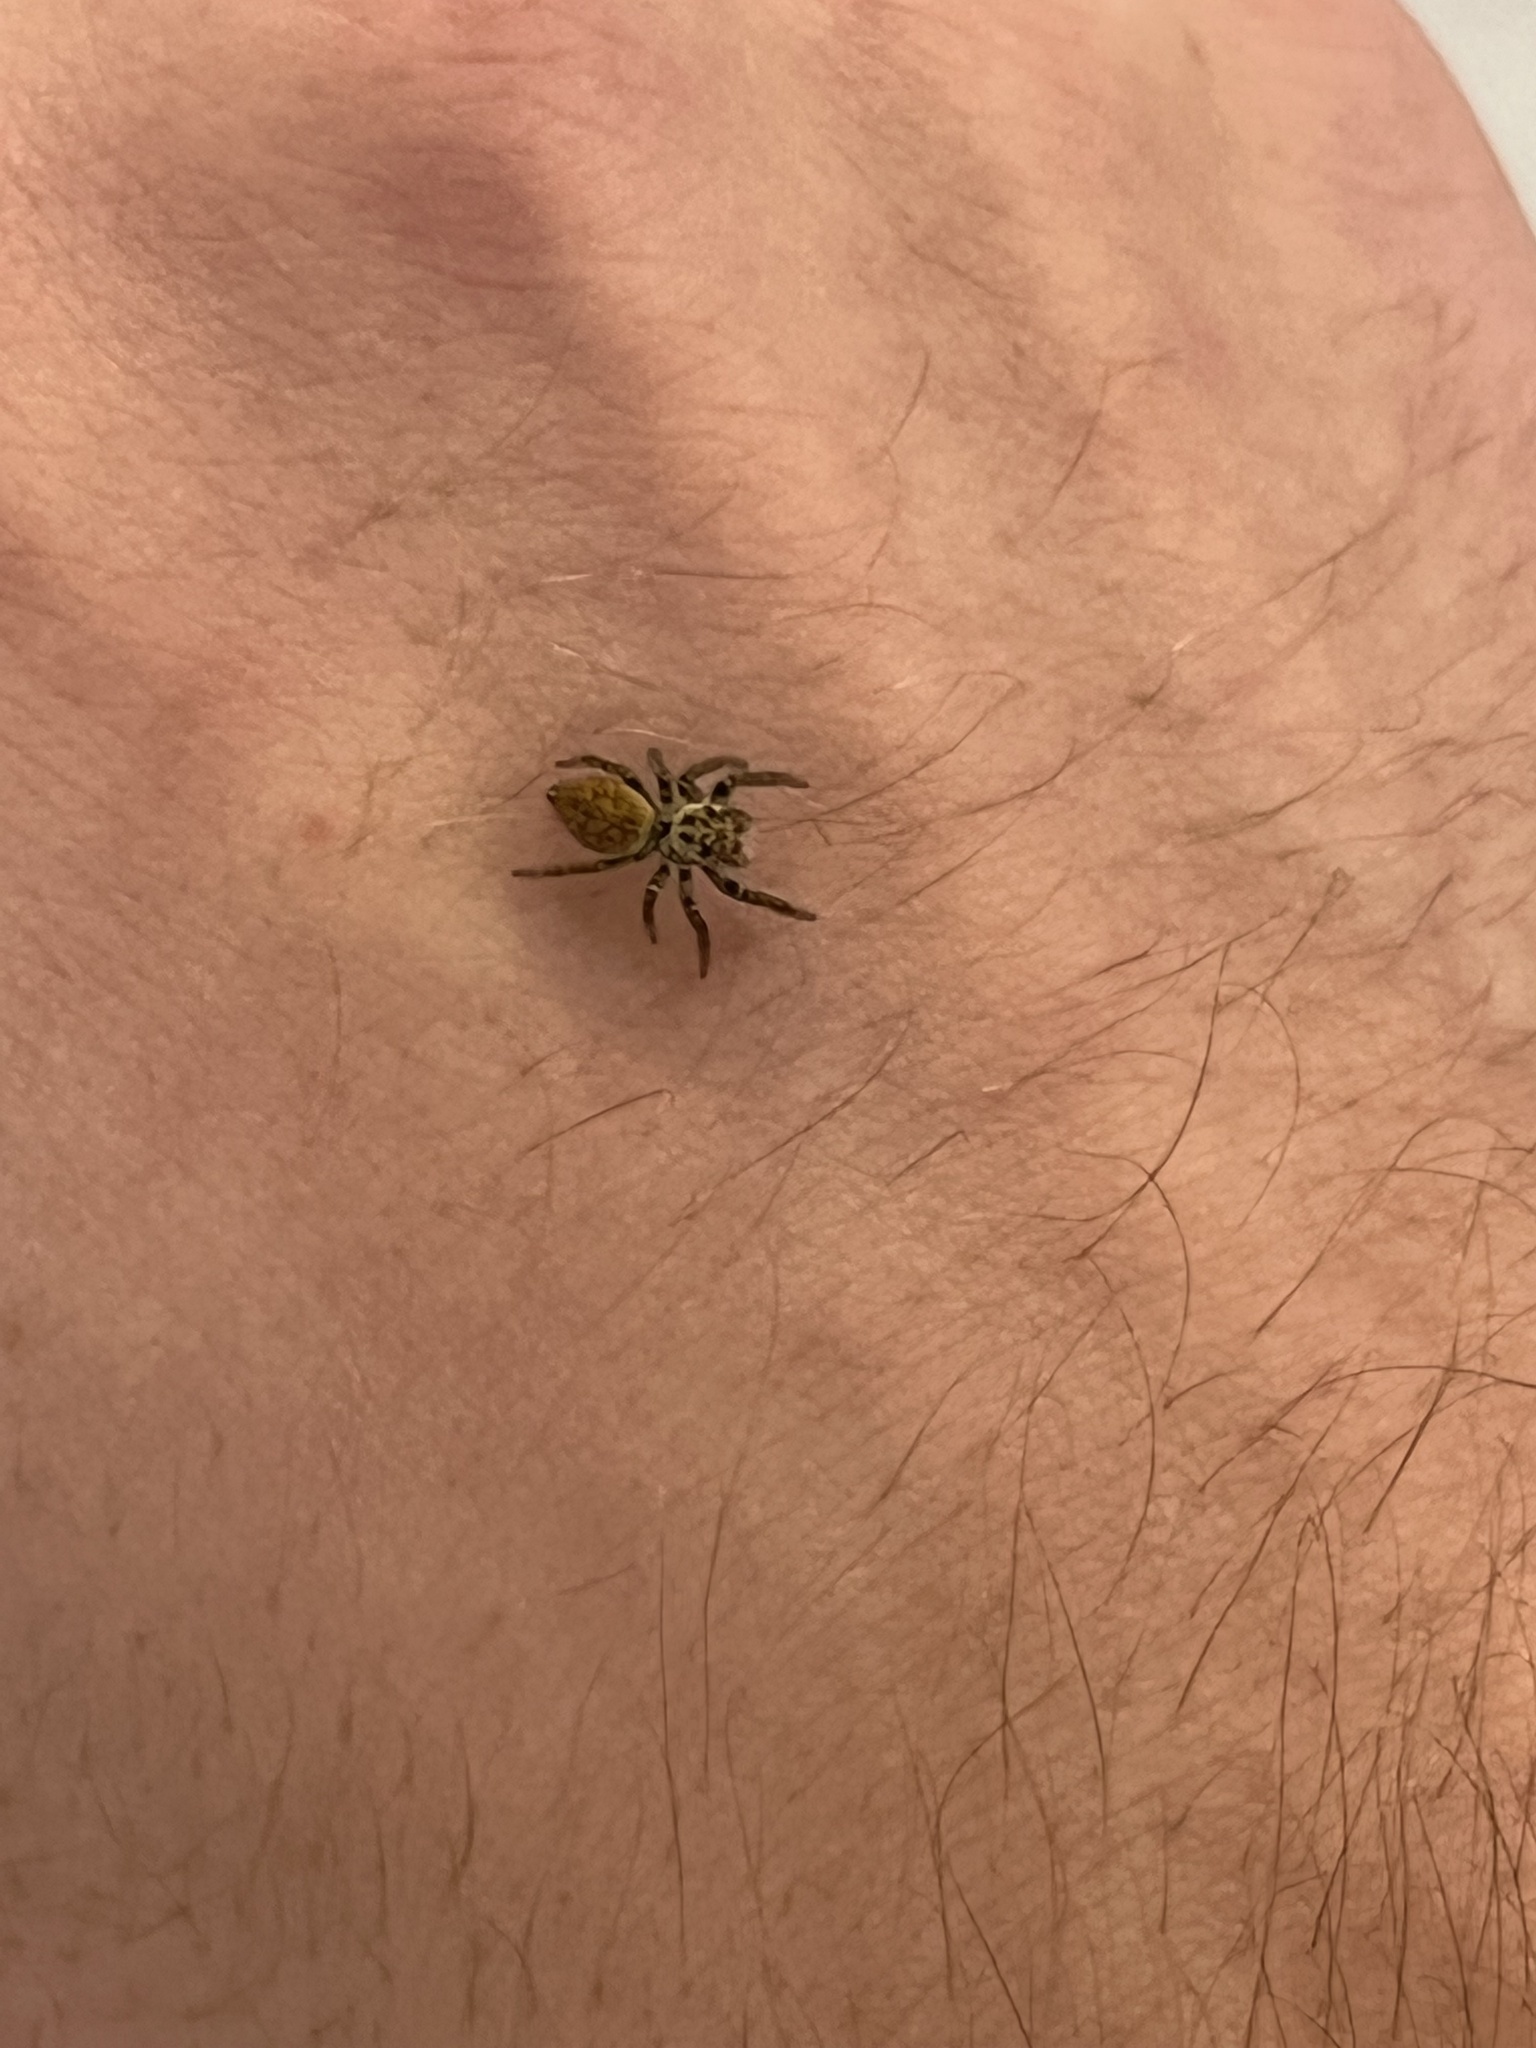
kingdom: Animalia
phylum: Arthropoda
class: Arachnida
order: Araneae
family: Salticidae
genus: Carrhotus
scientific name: Carrhotus xanthogramma
